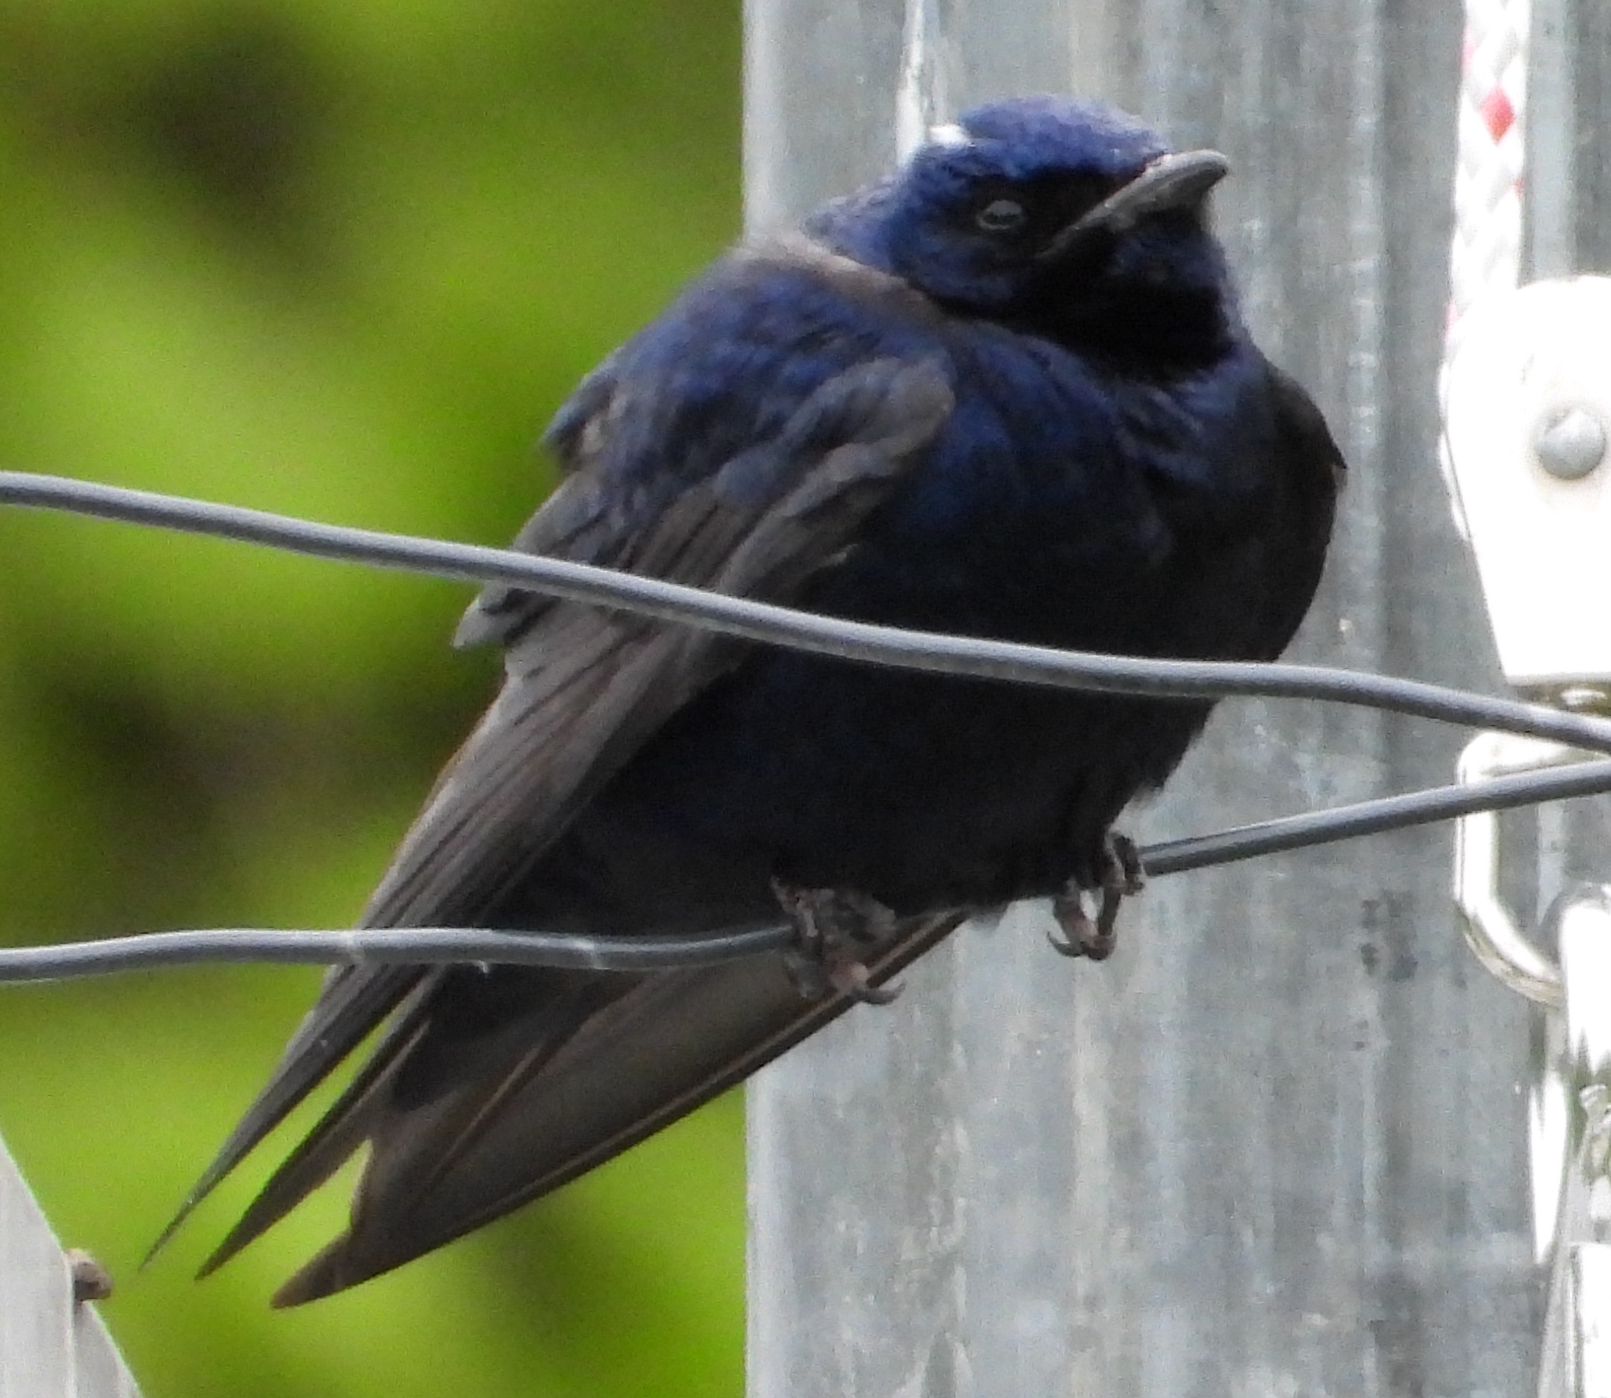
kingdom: Animalia
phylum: Chordata
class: Aves
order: Passeriformes
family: Hirundinidae
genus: Progne
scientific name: Progne subis
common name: Purple martin
